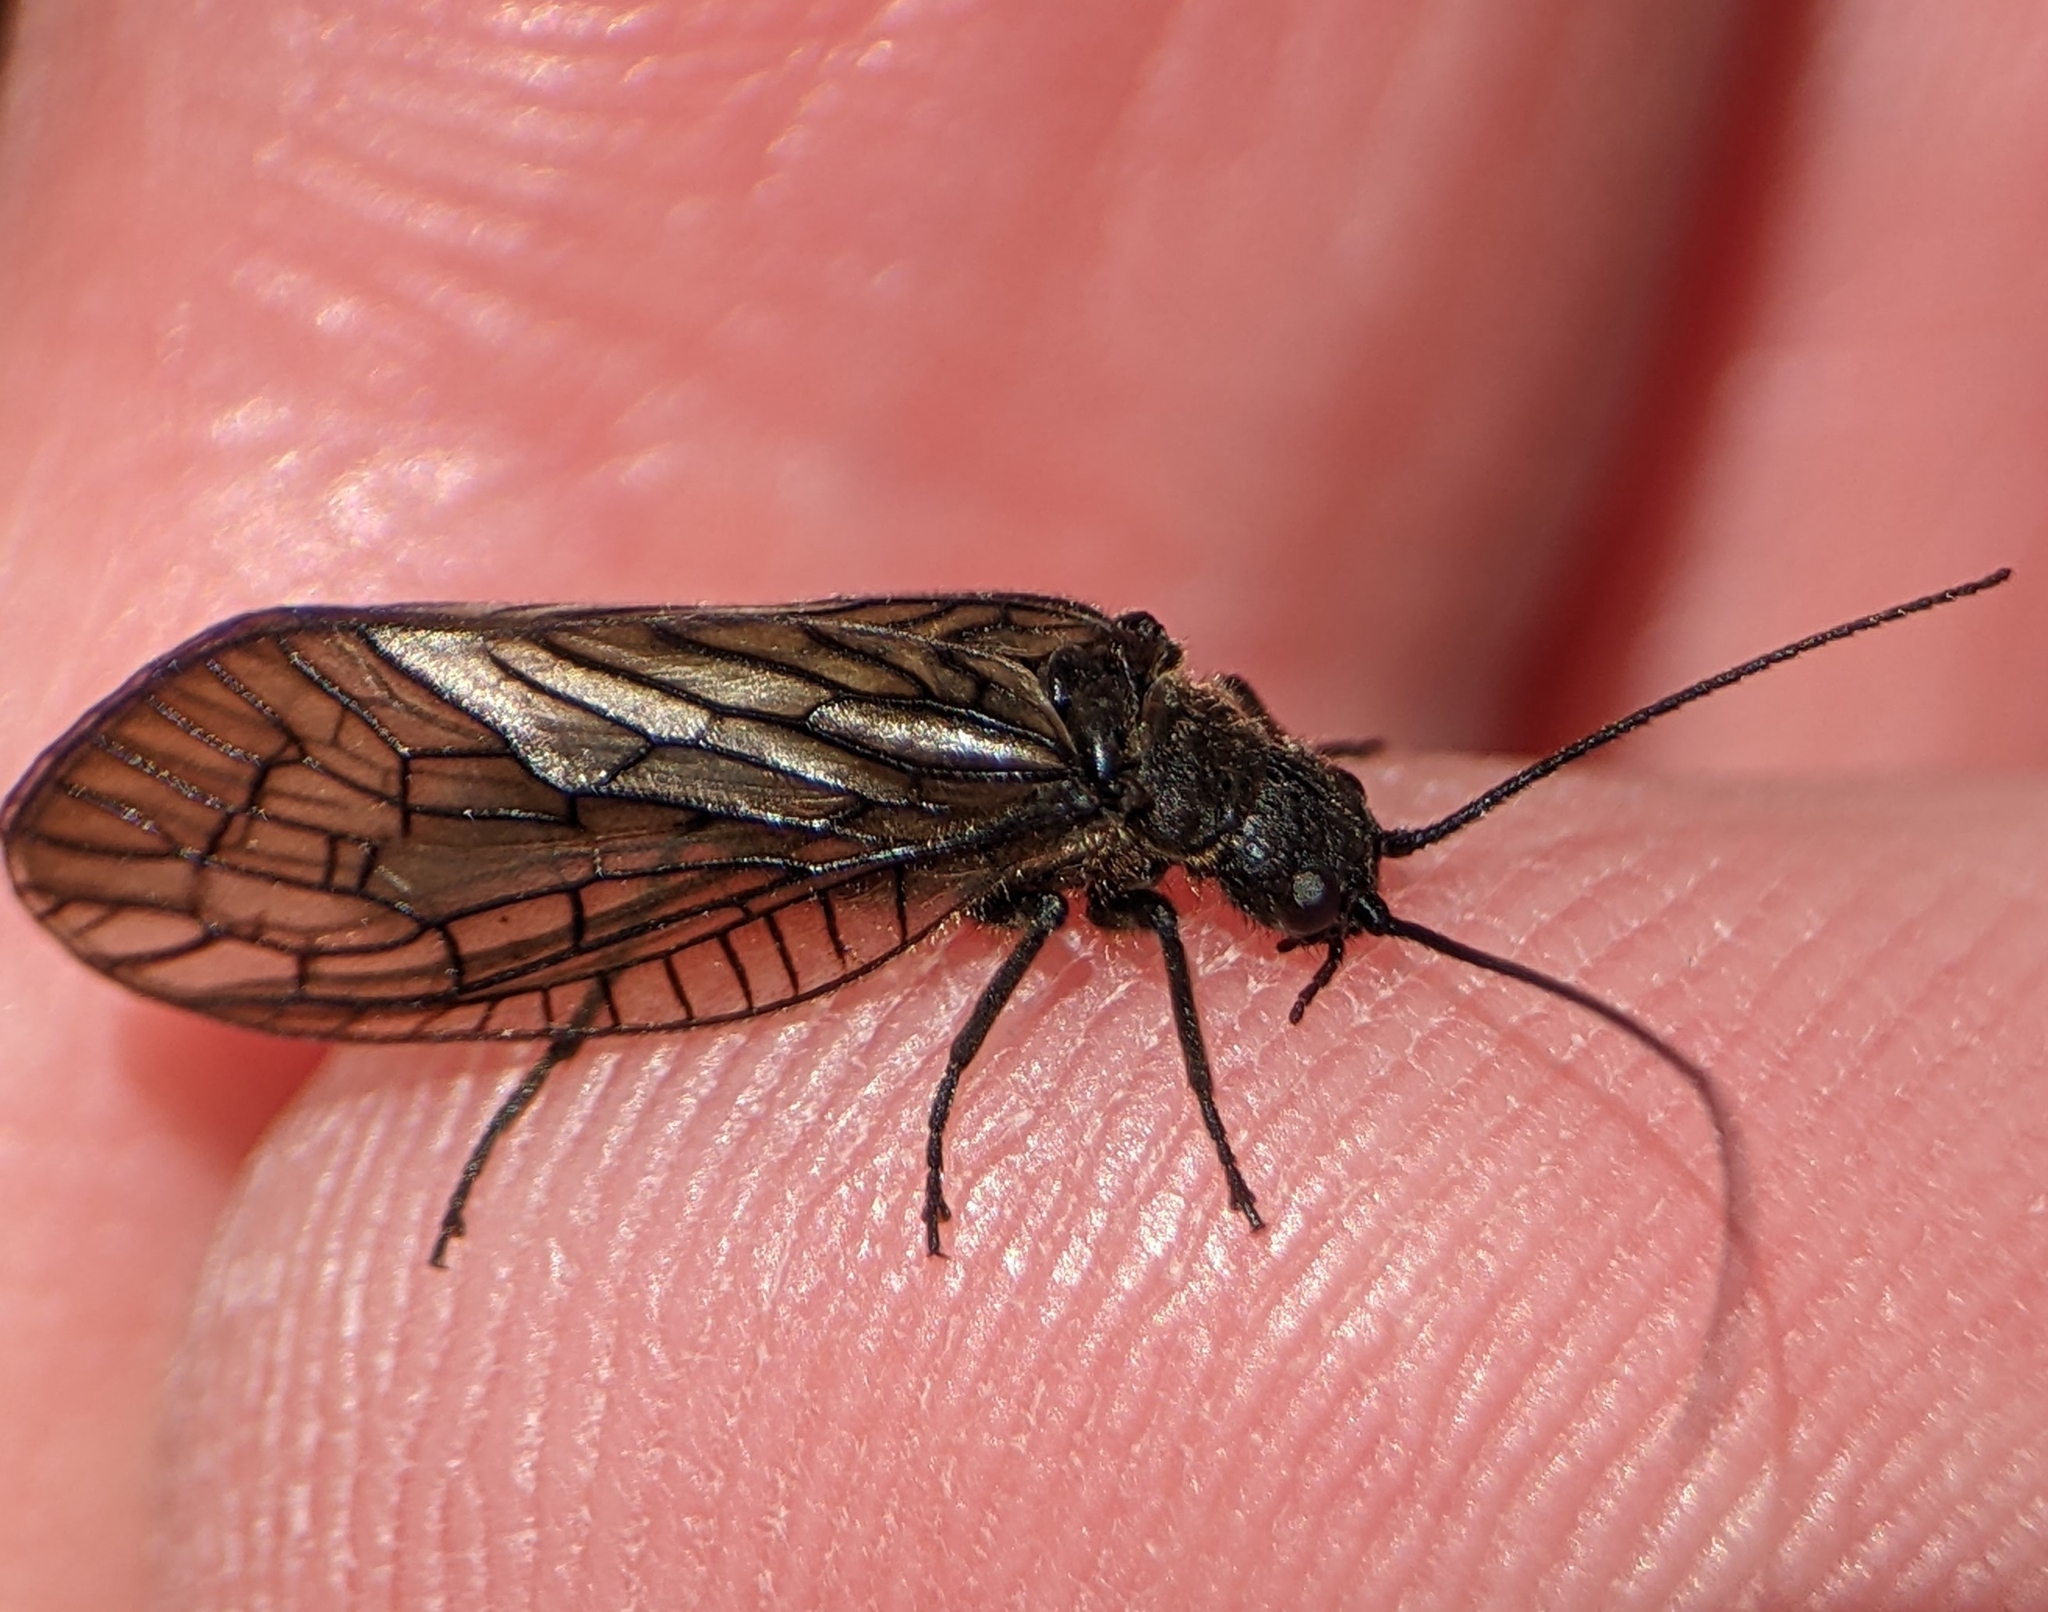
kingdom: Animalia
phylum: Arthropoda
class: Insecta
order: Megaloptera
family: Sialidae
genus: Sialis
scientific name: Sialis
